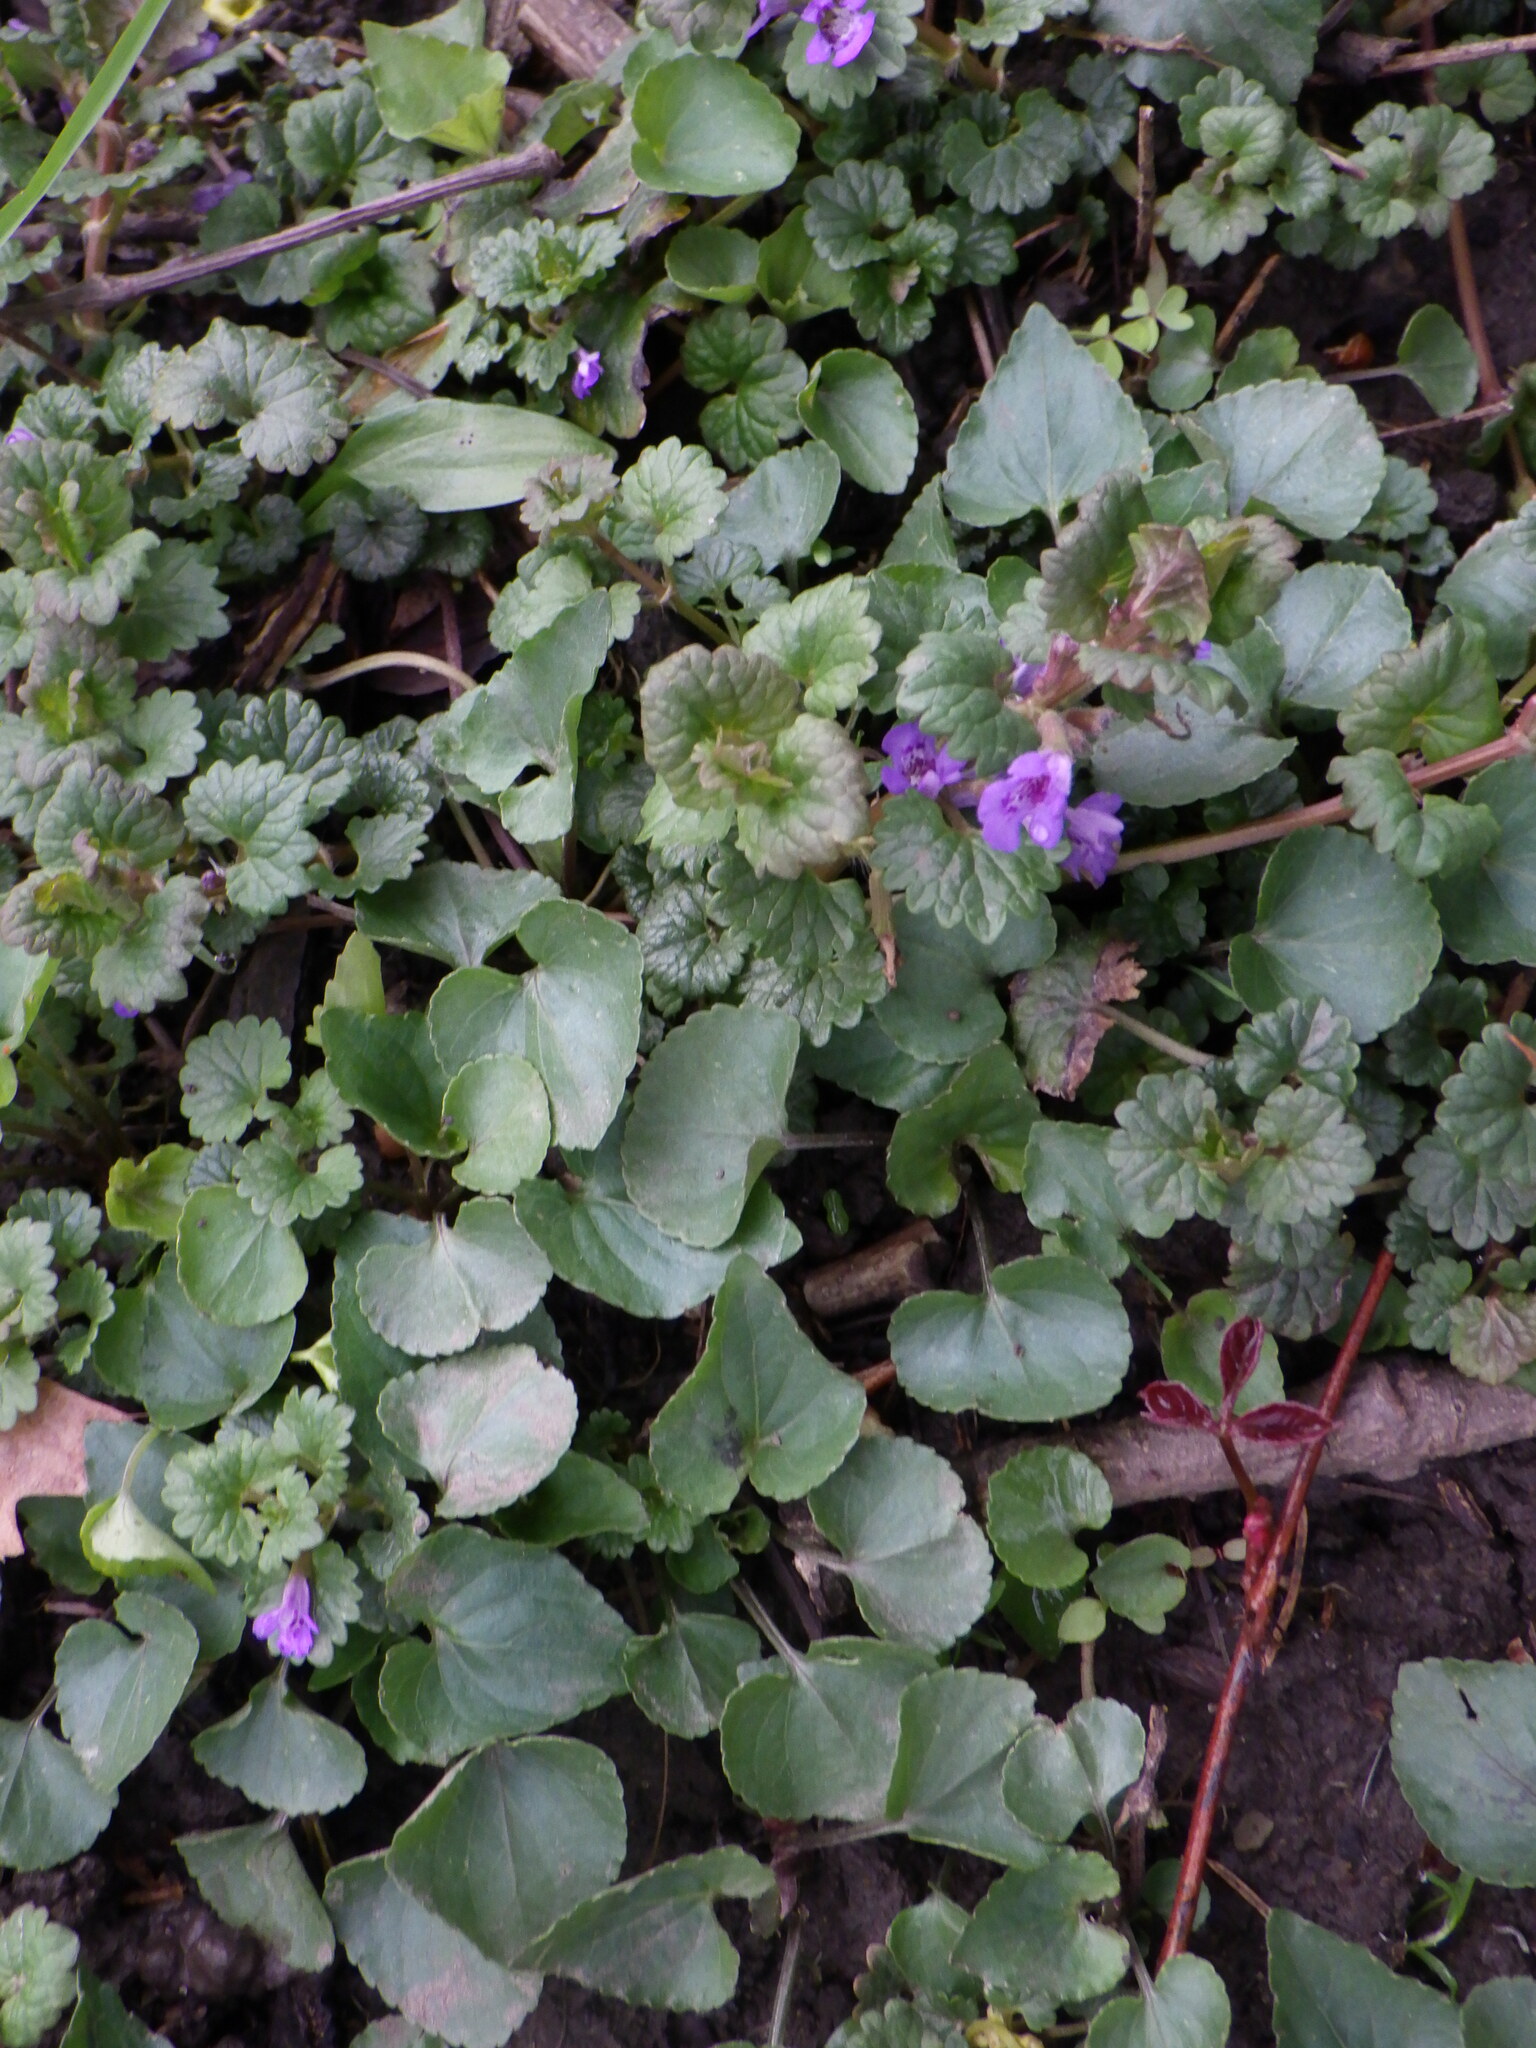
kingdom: Plantae
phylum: Tracheophyta
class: Magnoliopsida
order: Lamiales
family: Lamiaceae
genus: Glechoma
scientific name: Glechoma hederacea
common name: Ground ivy
